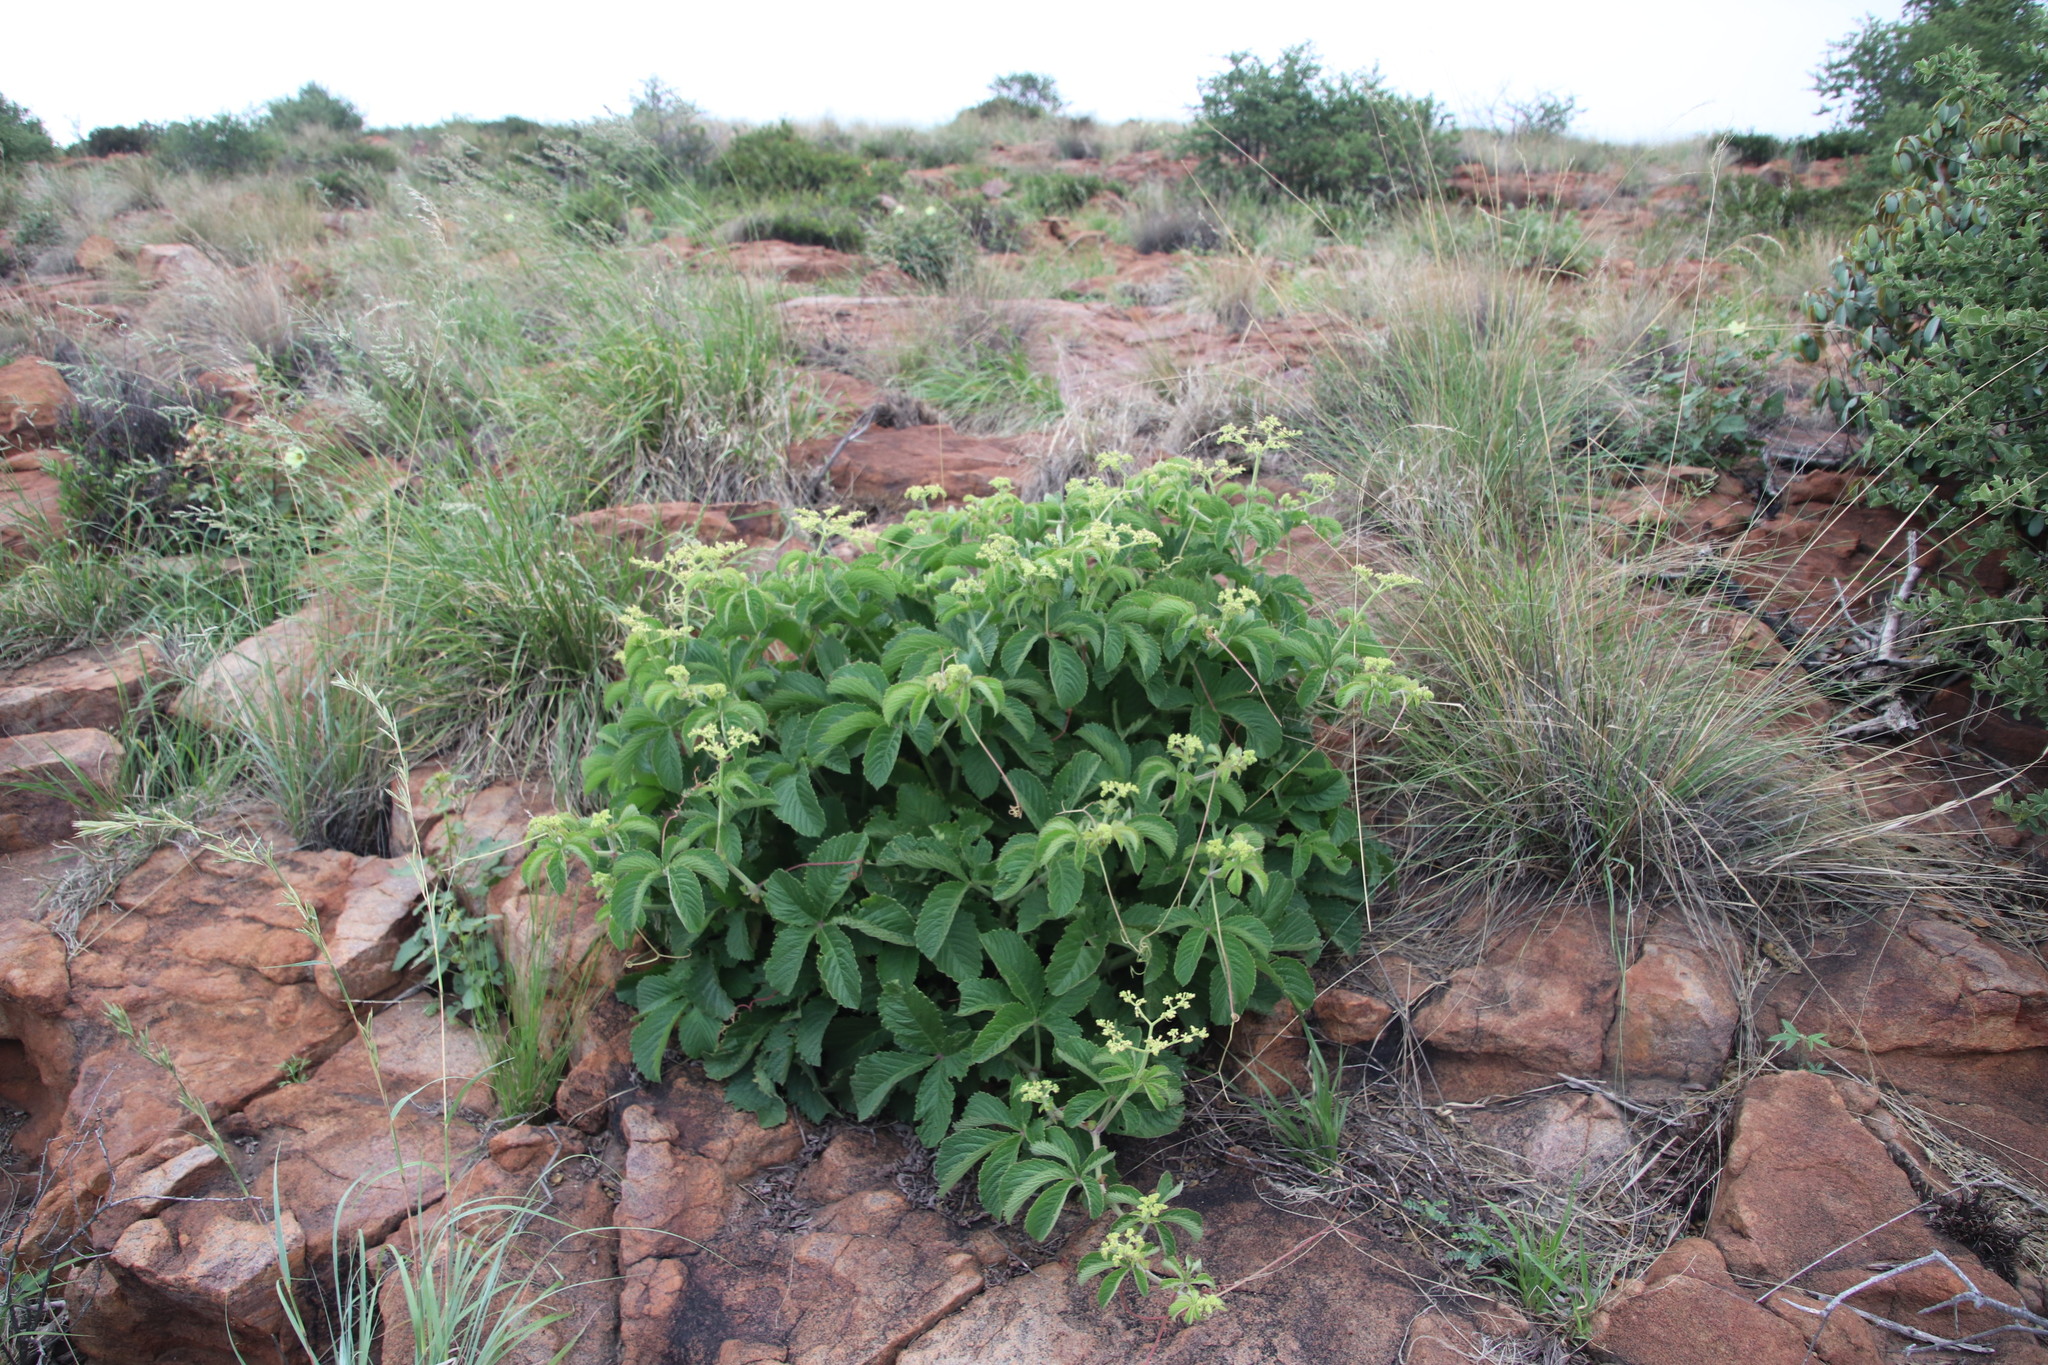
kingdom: Plantae
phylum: Tracheophyta
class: Magnoliopsida
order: Vitales
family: Vitaceae
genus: Cyphostemma
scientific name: Cyphostemma lanigerum
